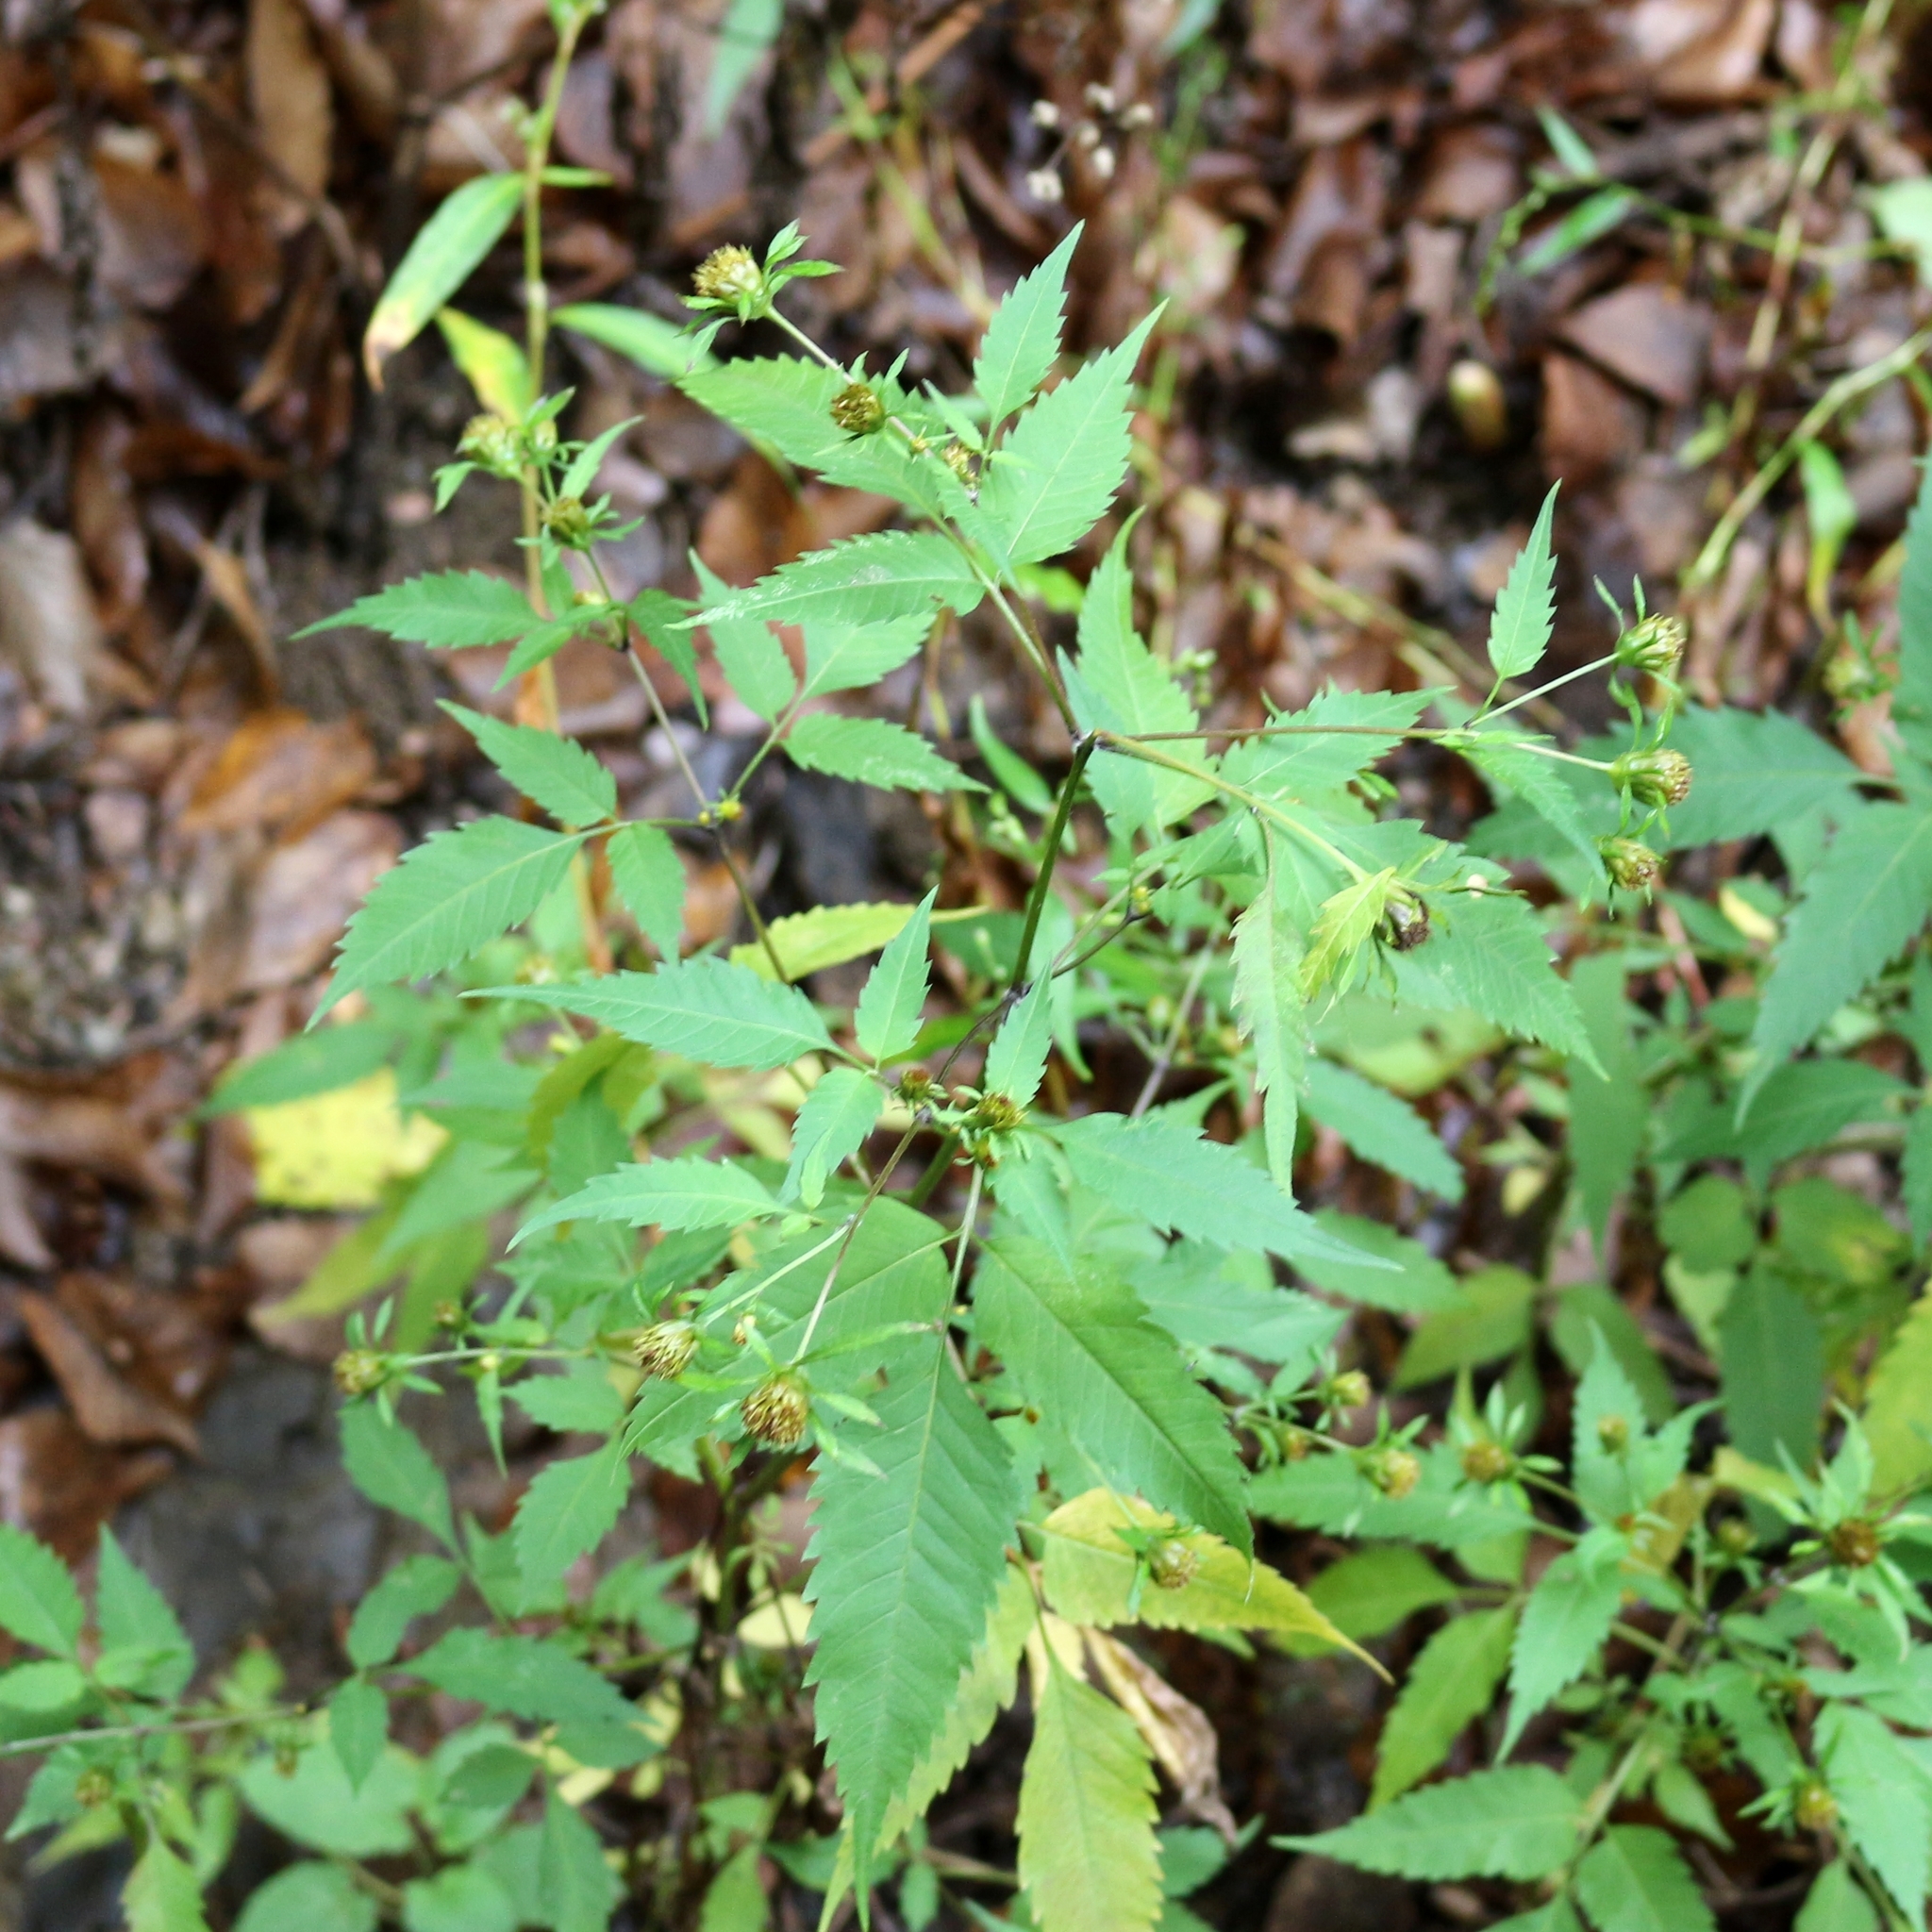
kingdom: Plantae
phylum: Tracheophyta
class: Magnoliopsida
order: Asterales
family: Asteraceae
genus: Bidens
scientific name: Bidens frondosa
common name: Beggarticks
